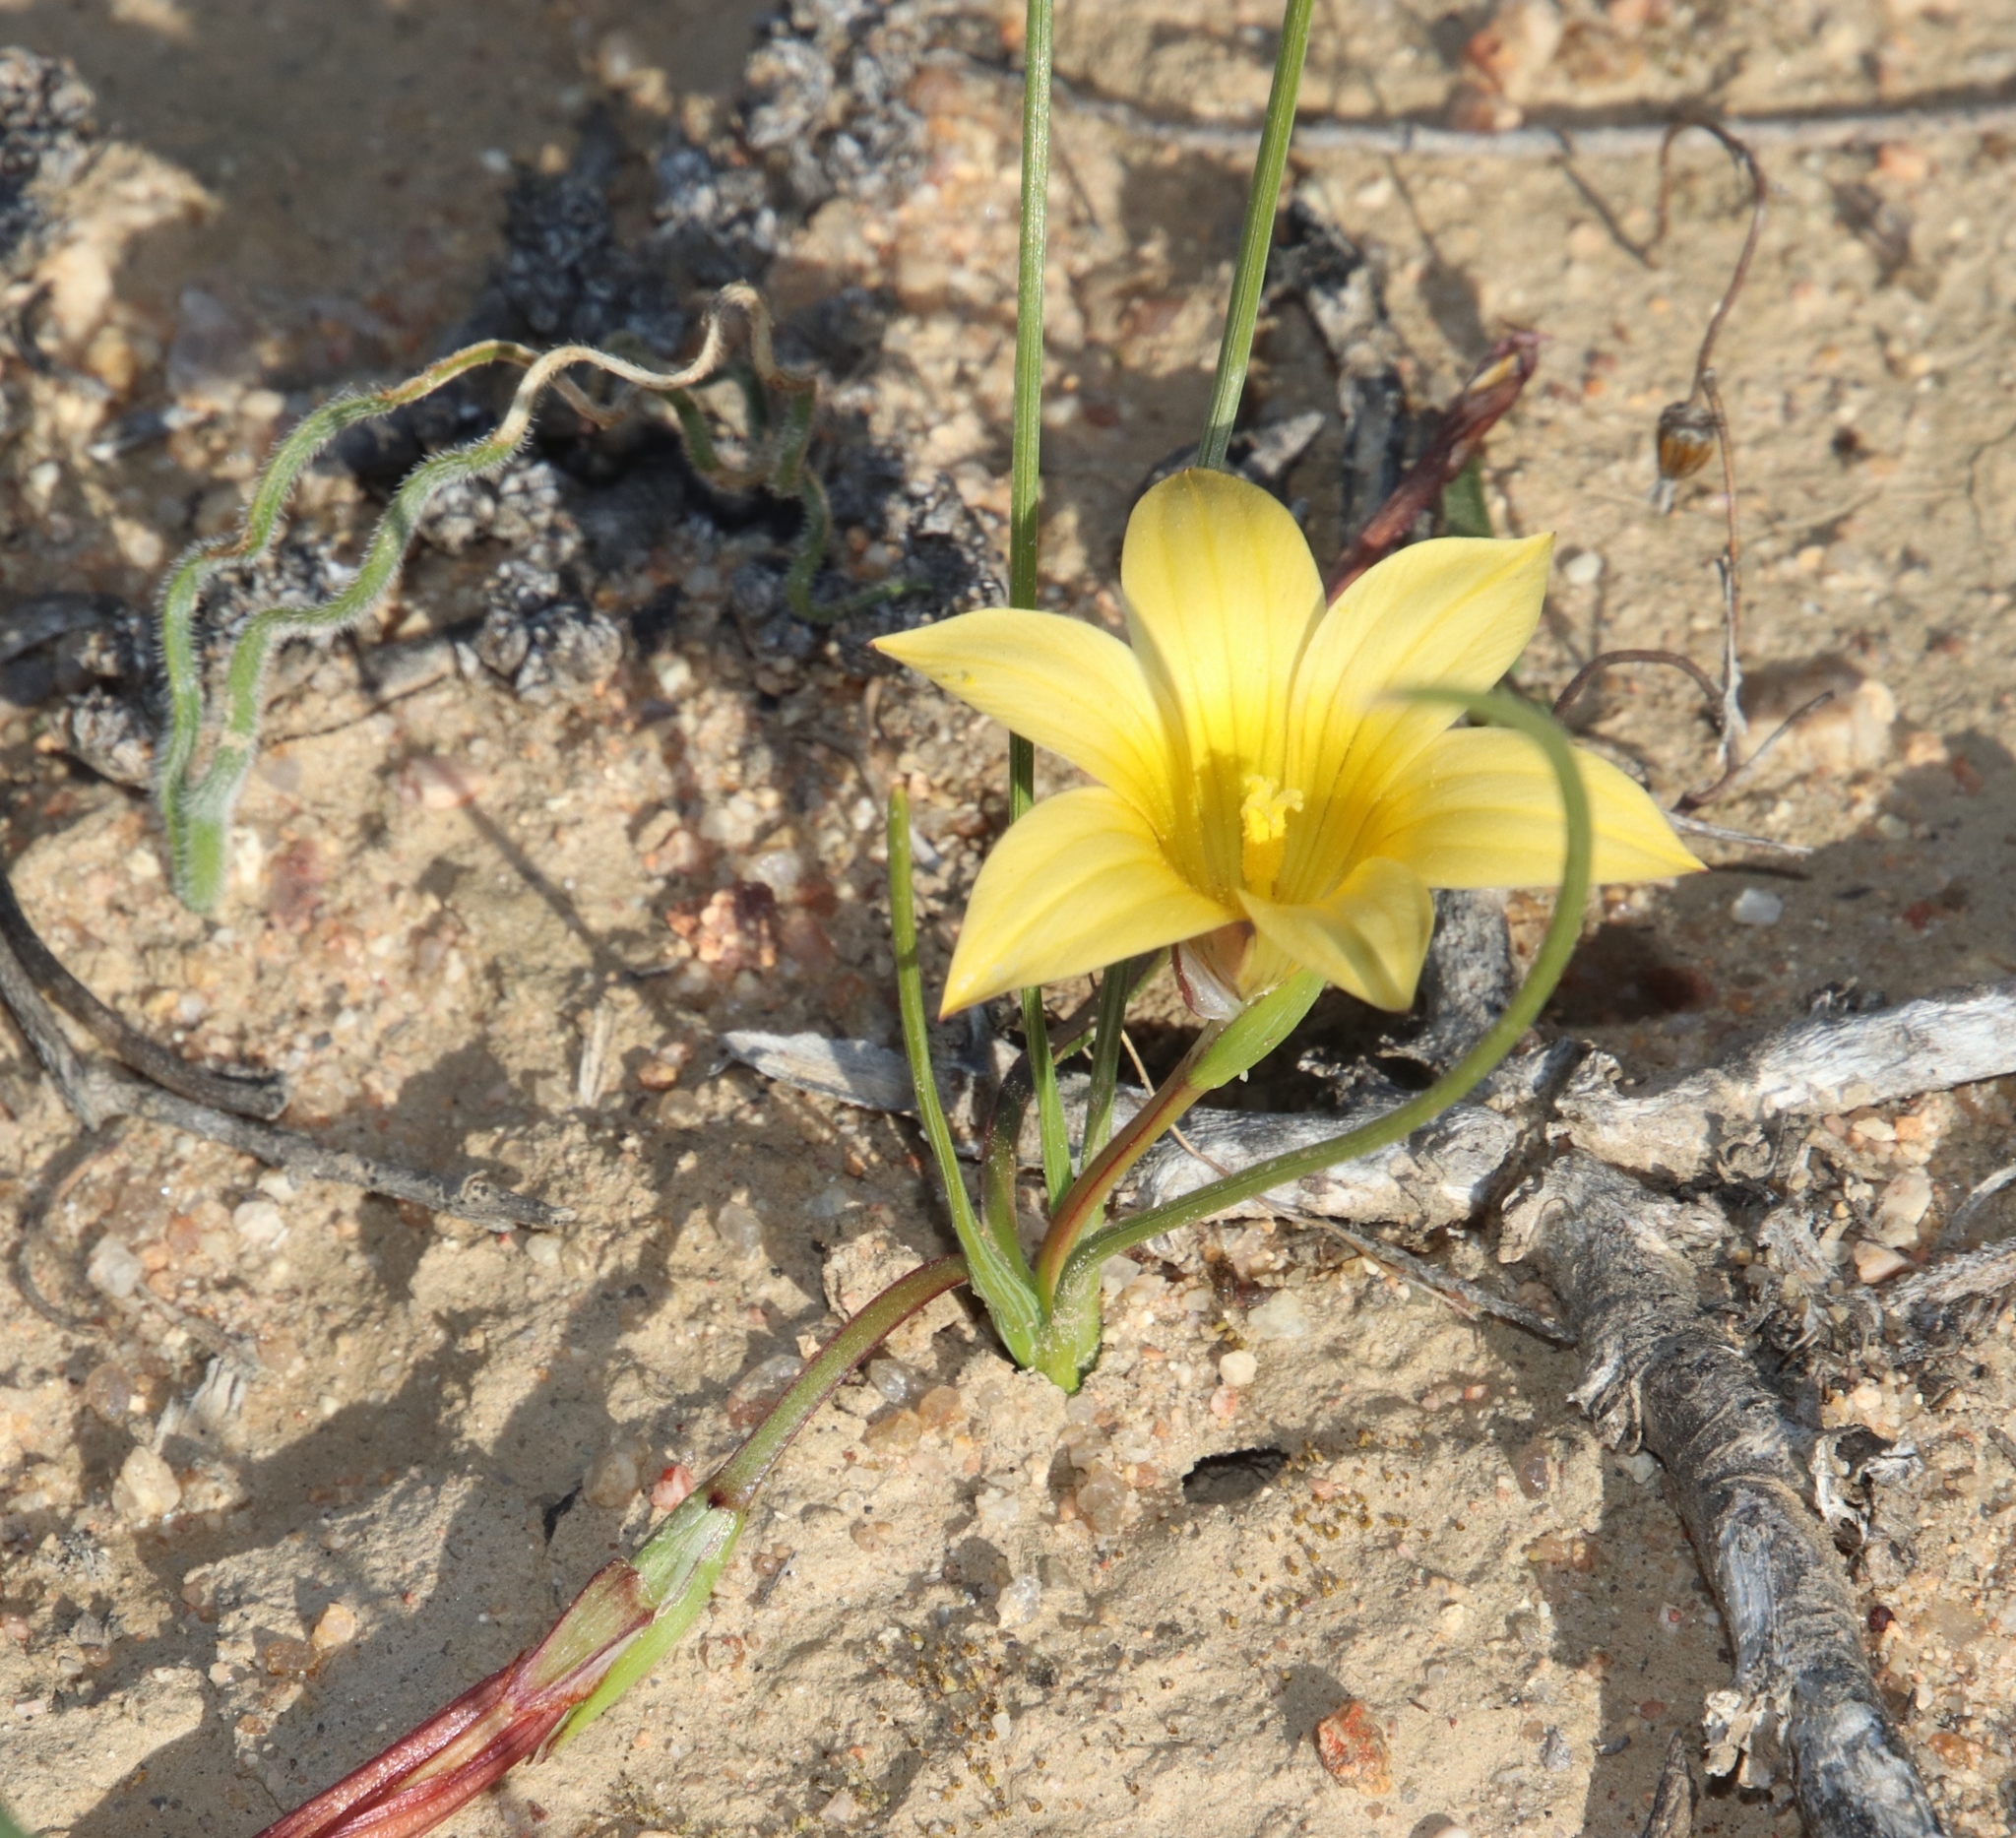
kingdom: Plantae
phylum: Tracheophyta
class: Liliopsida
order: Asparagales
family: Iridaceae
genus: Romulea
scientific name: Romulea citrina
